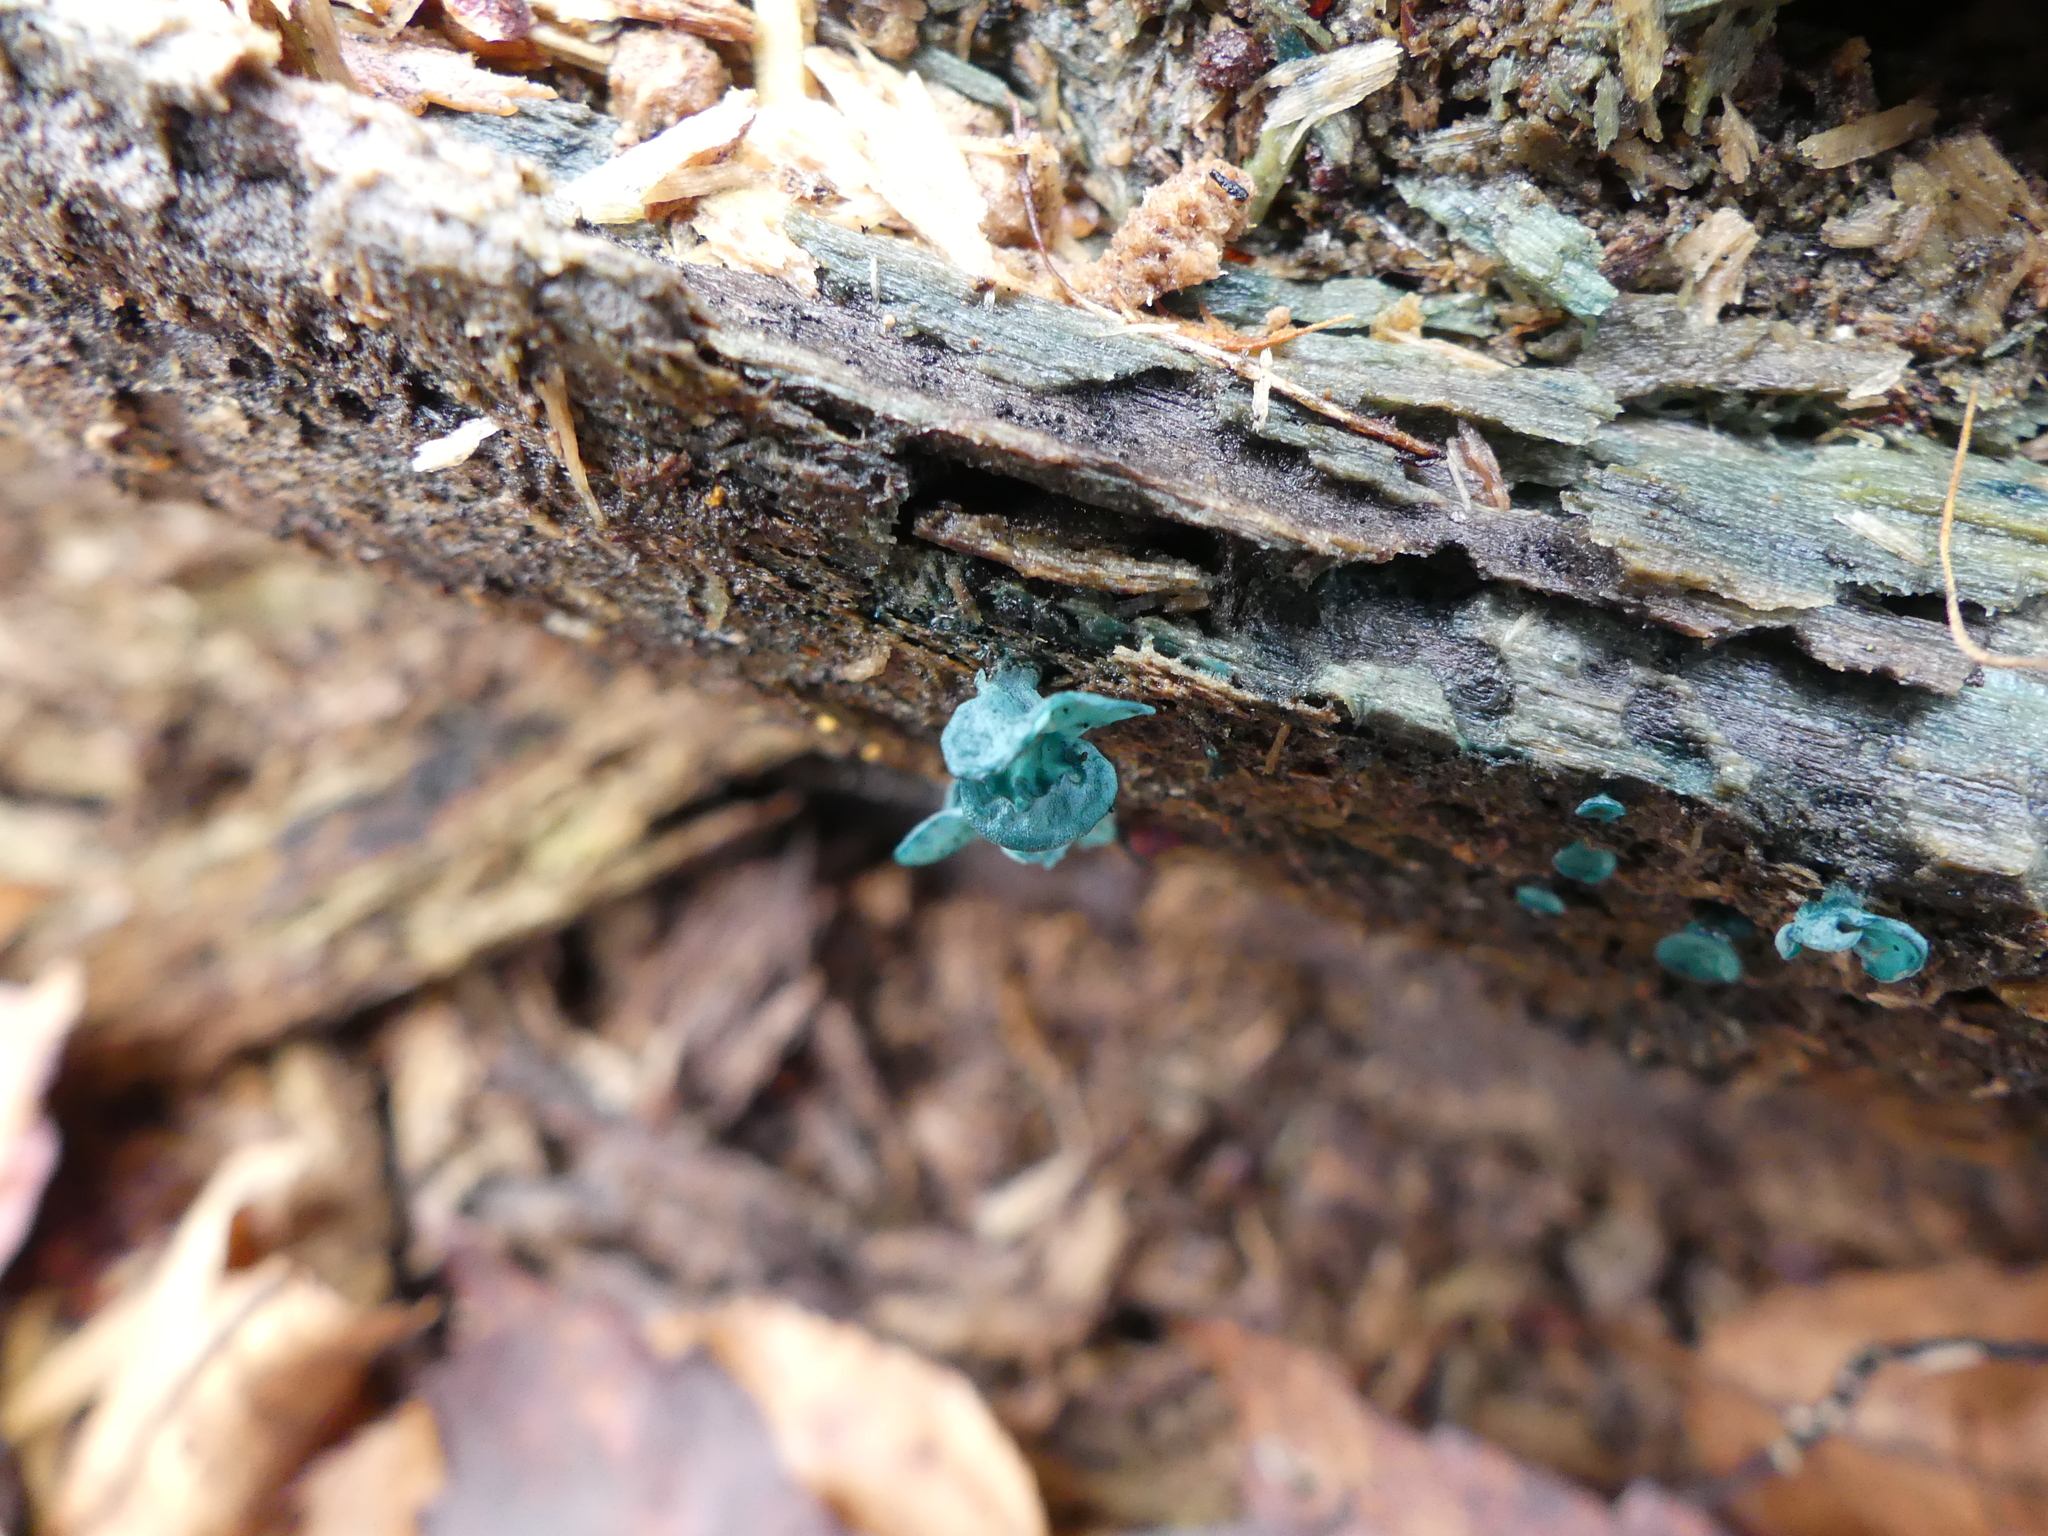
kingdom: Fungi
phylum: Ascomycota
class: Leotiomycetes
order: Helotiales
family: Chlorociboriaceae
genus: Chlorociboria
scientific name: Chlorociboria aeruginascens
